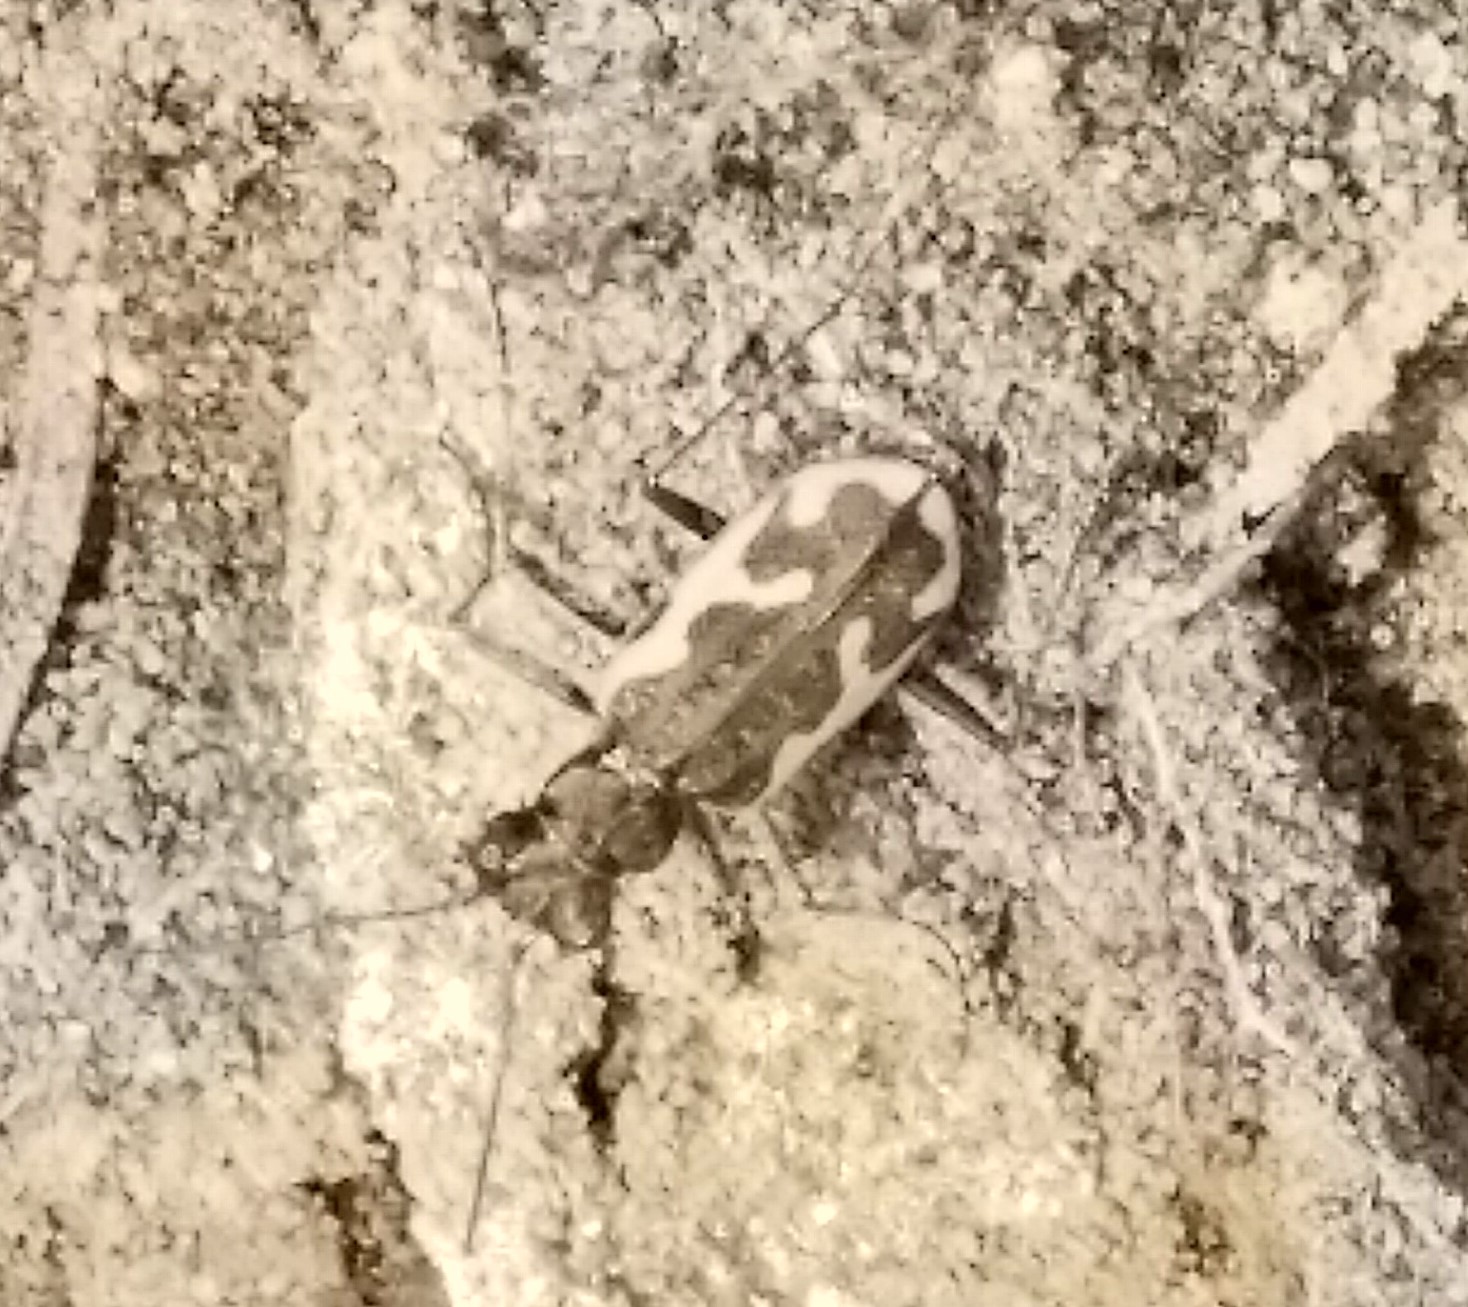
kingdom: Animalia
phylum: Arthropoda
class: Insecta
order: Coleoptera
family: Carabidae
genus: Neocicindela
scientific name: Neocicindela tuberculata
